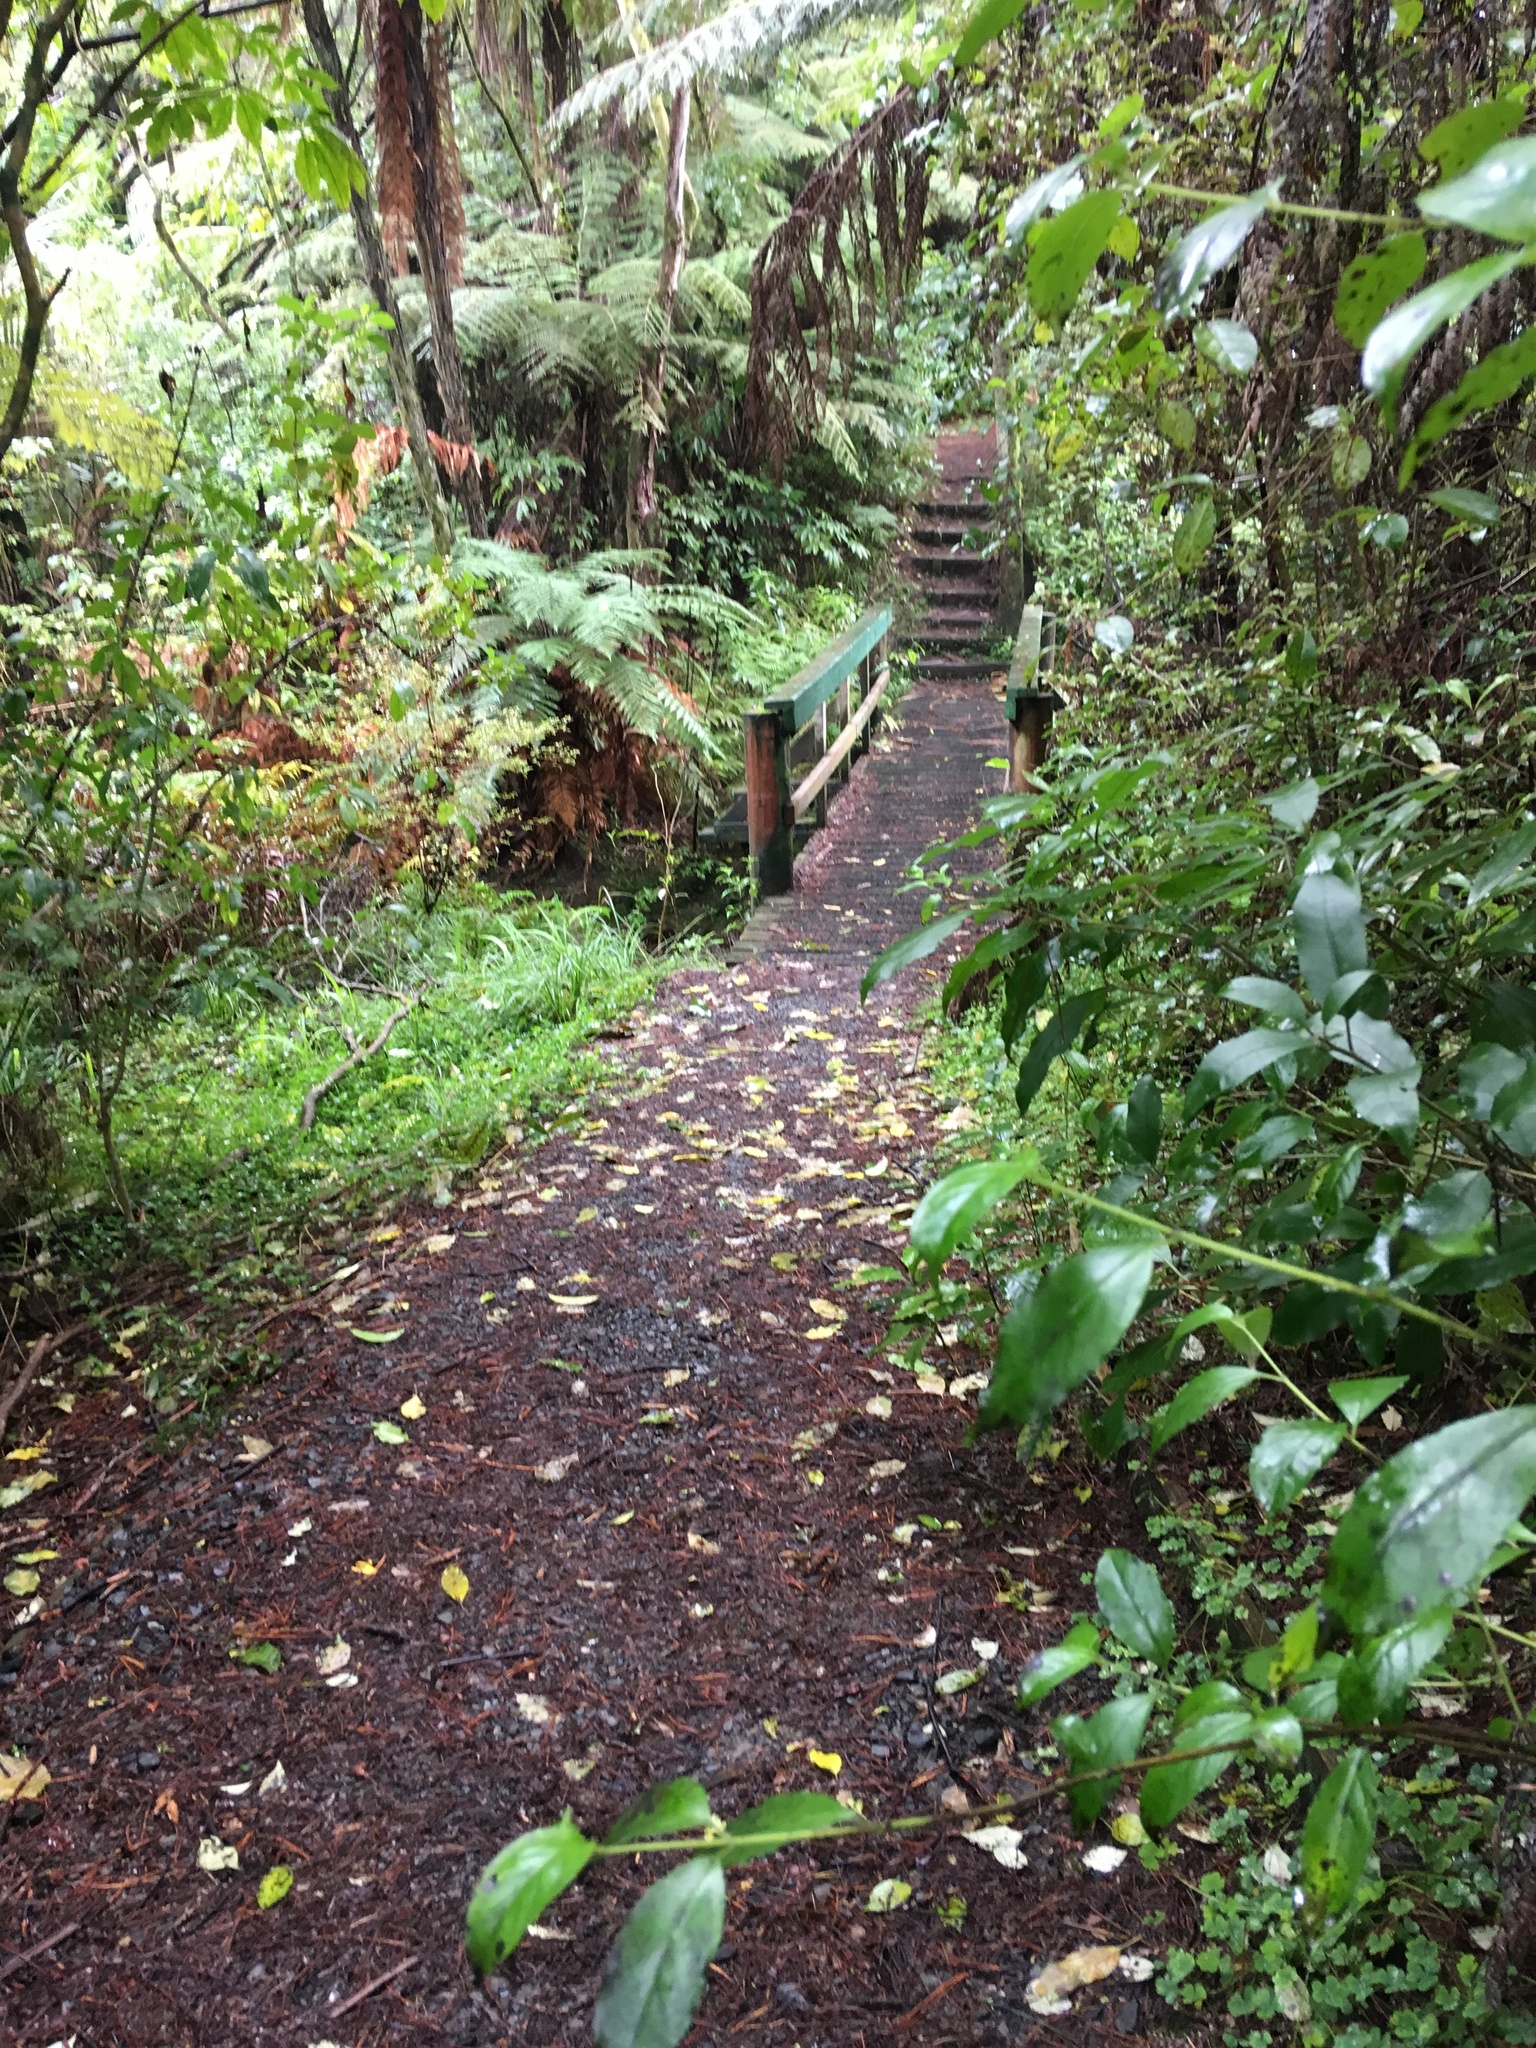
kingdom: Plantae
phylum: Tracheophyta
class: Magnoliopsida
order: Gentianales
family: Loganiaceae
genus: Geniostoma
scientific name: Geniostoma ligustrifolium
